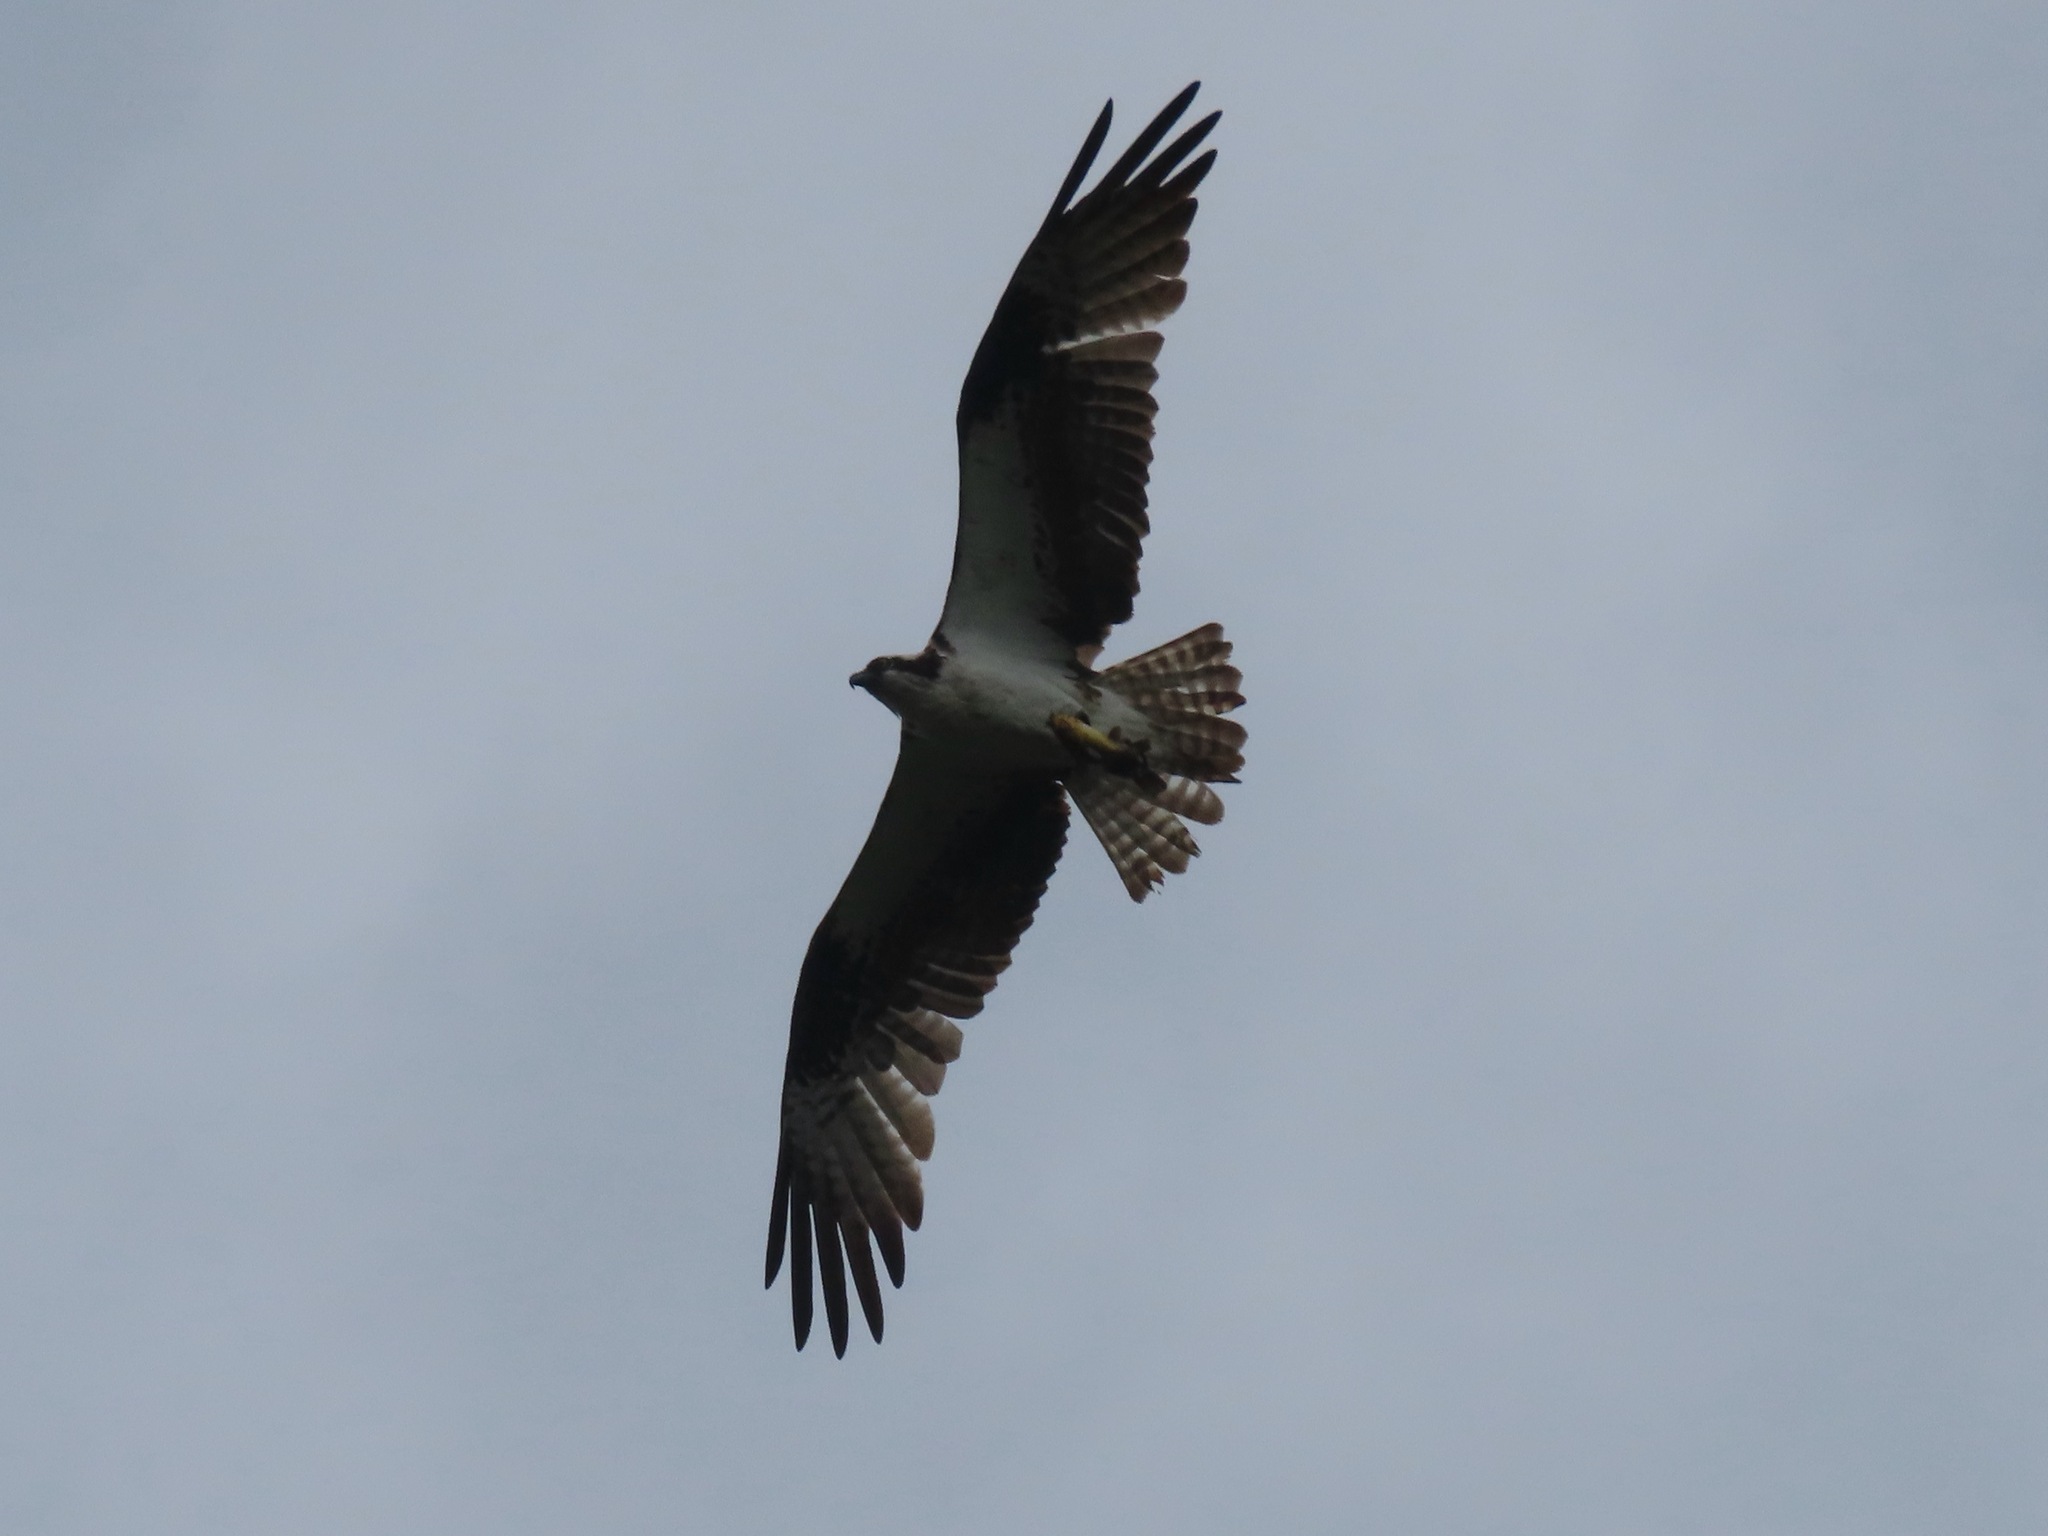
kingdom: Animalia
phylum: Chordata
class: Aves
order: Accipitriformes
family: Pandionidae
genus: Pandion
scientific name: Pandion haliaetus
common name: Osprey
